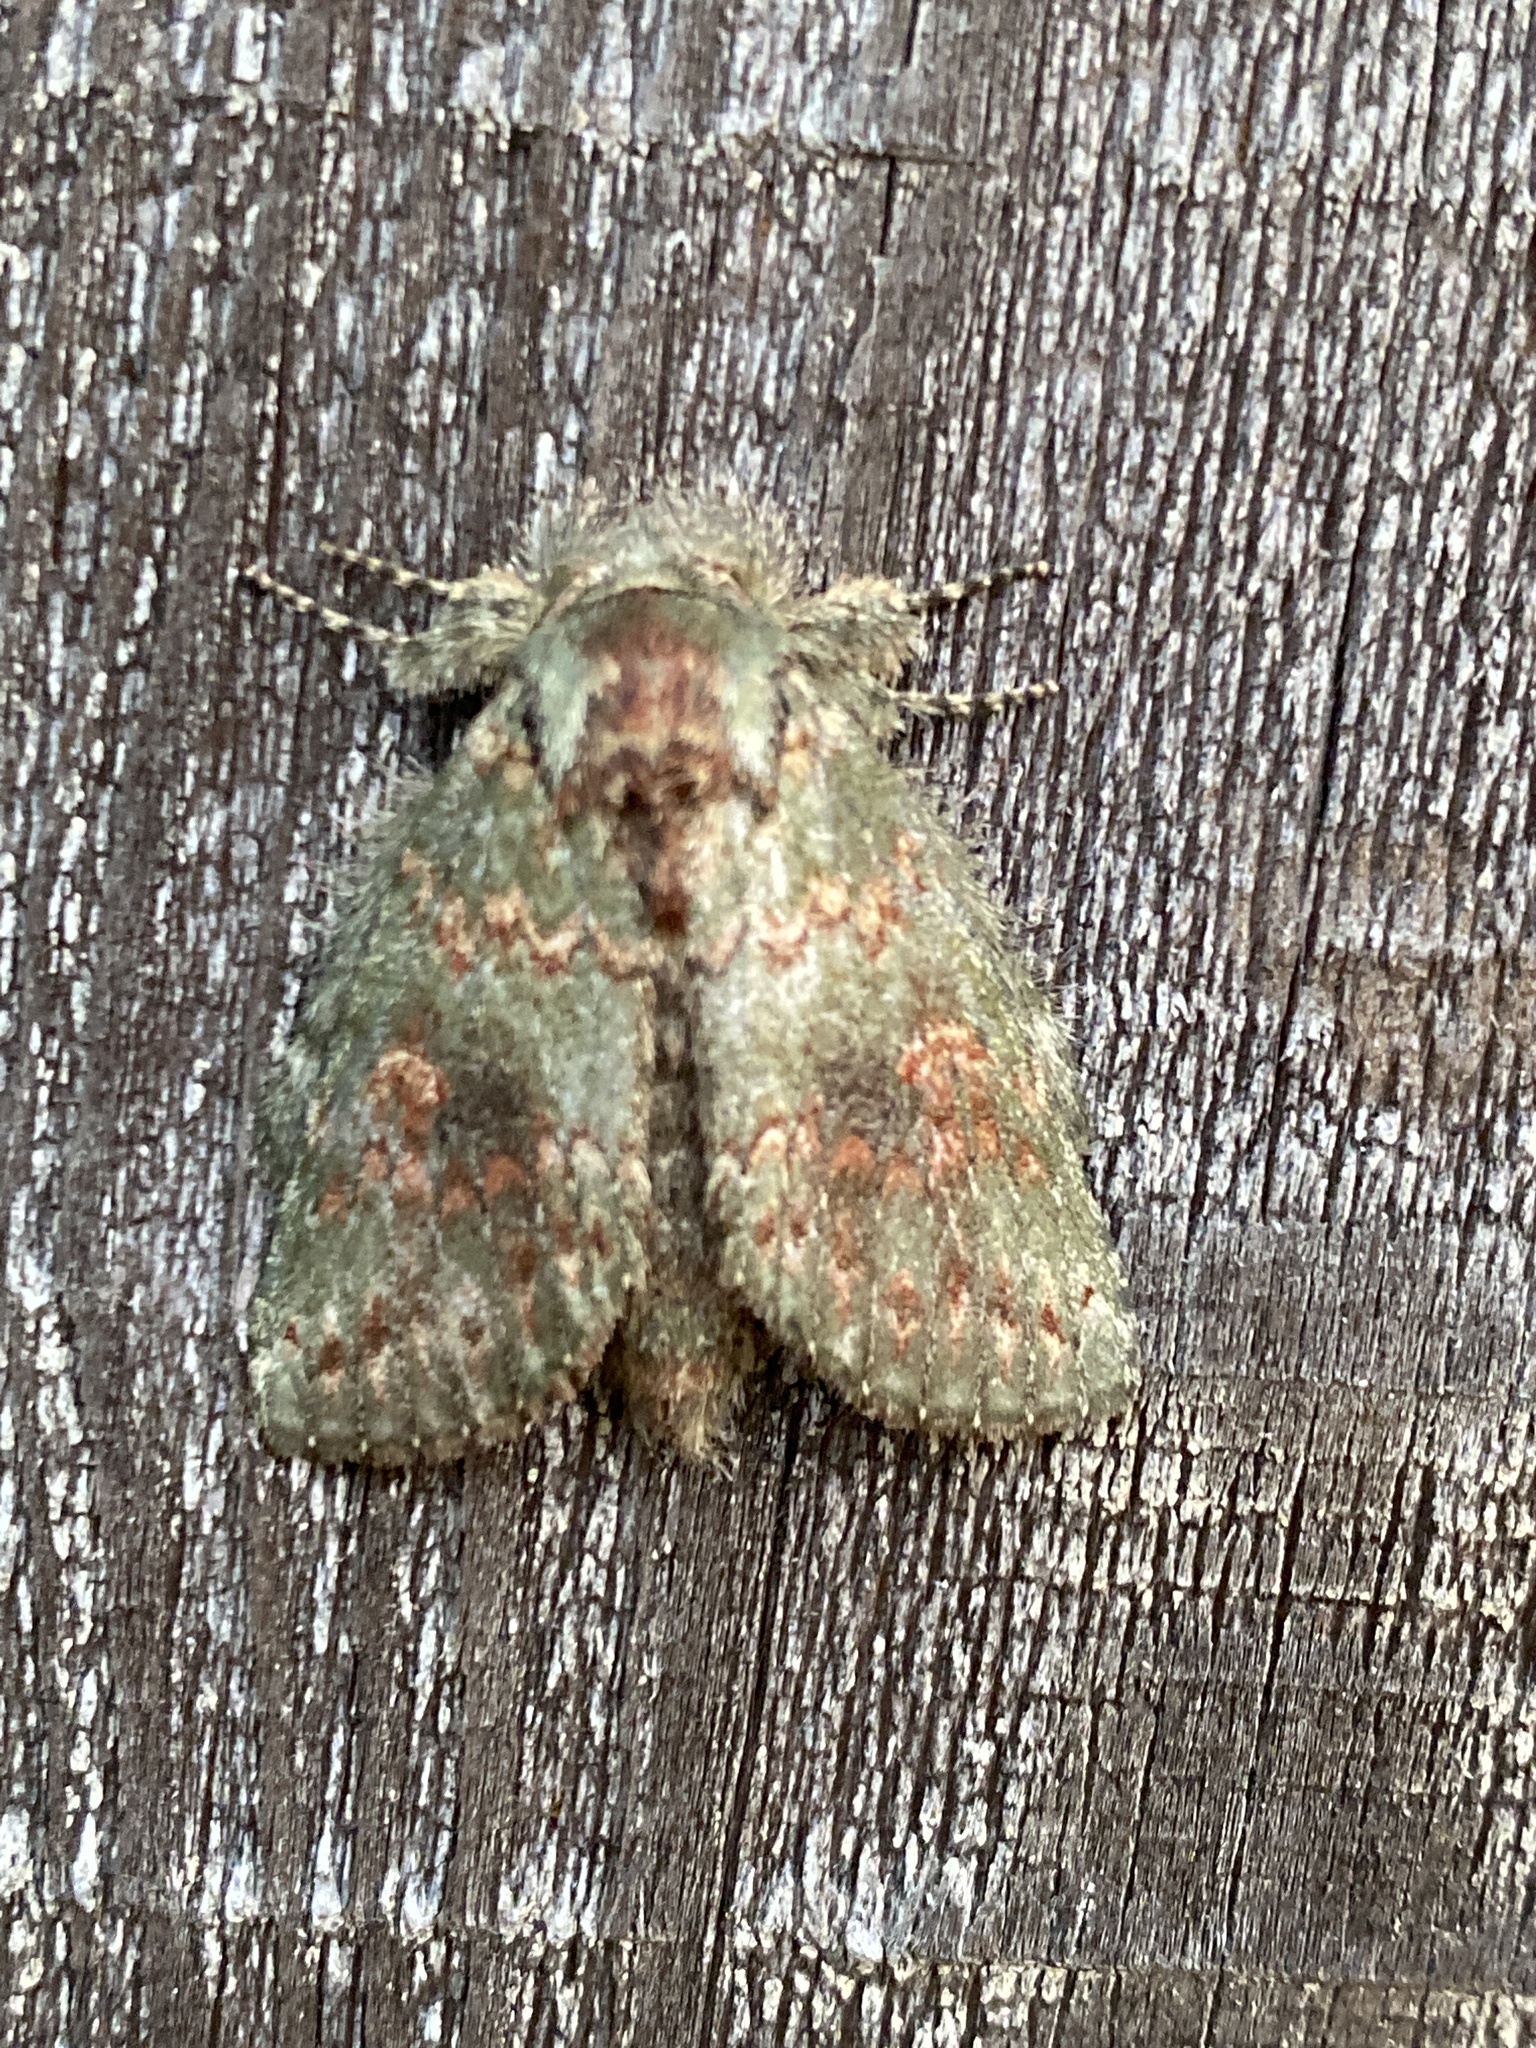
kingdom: Animalia
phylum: Arthropoda
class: Insecta
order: Lepidoptera
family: Notodontidae
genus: Disphragis
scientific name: Disphragis Cecrita biundata
